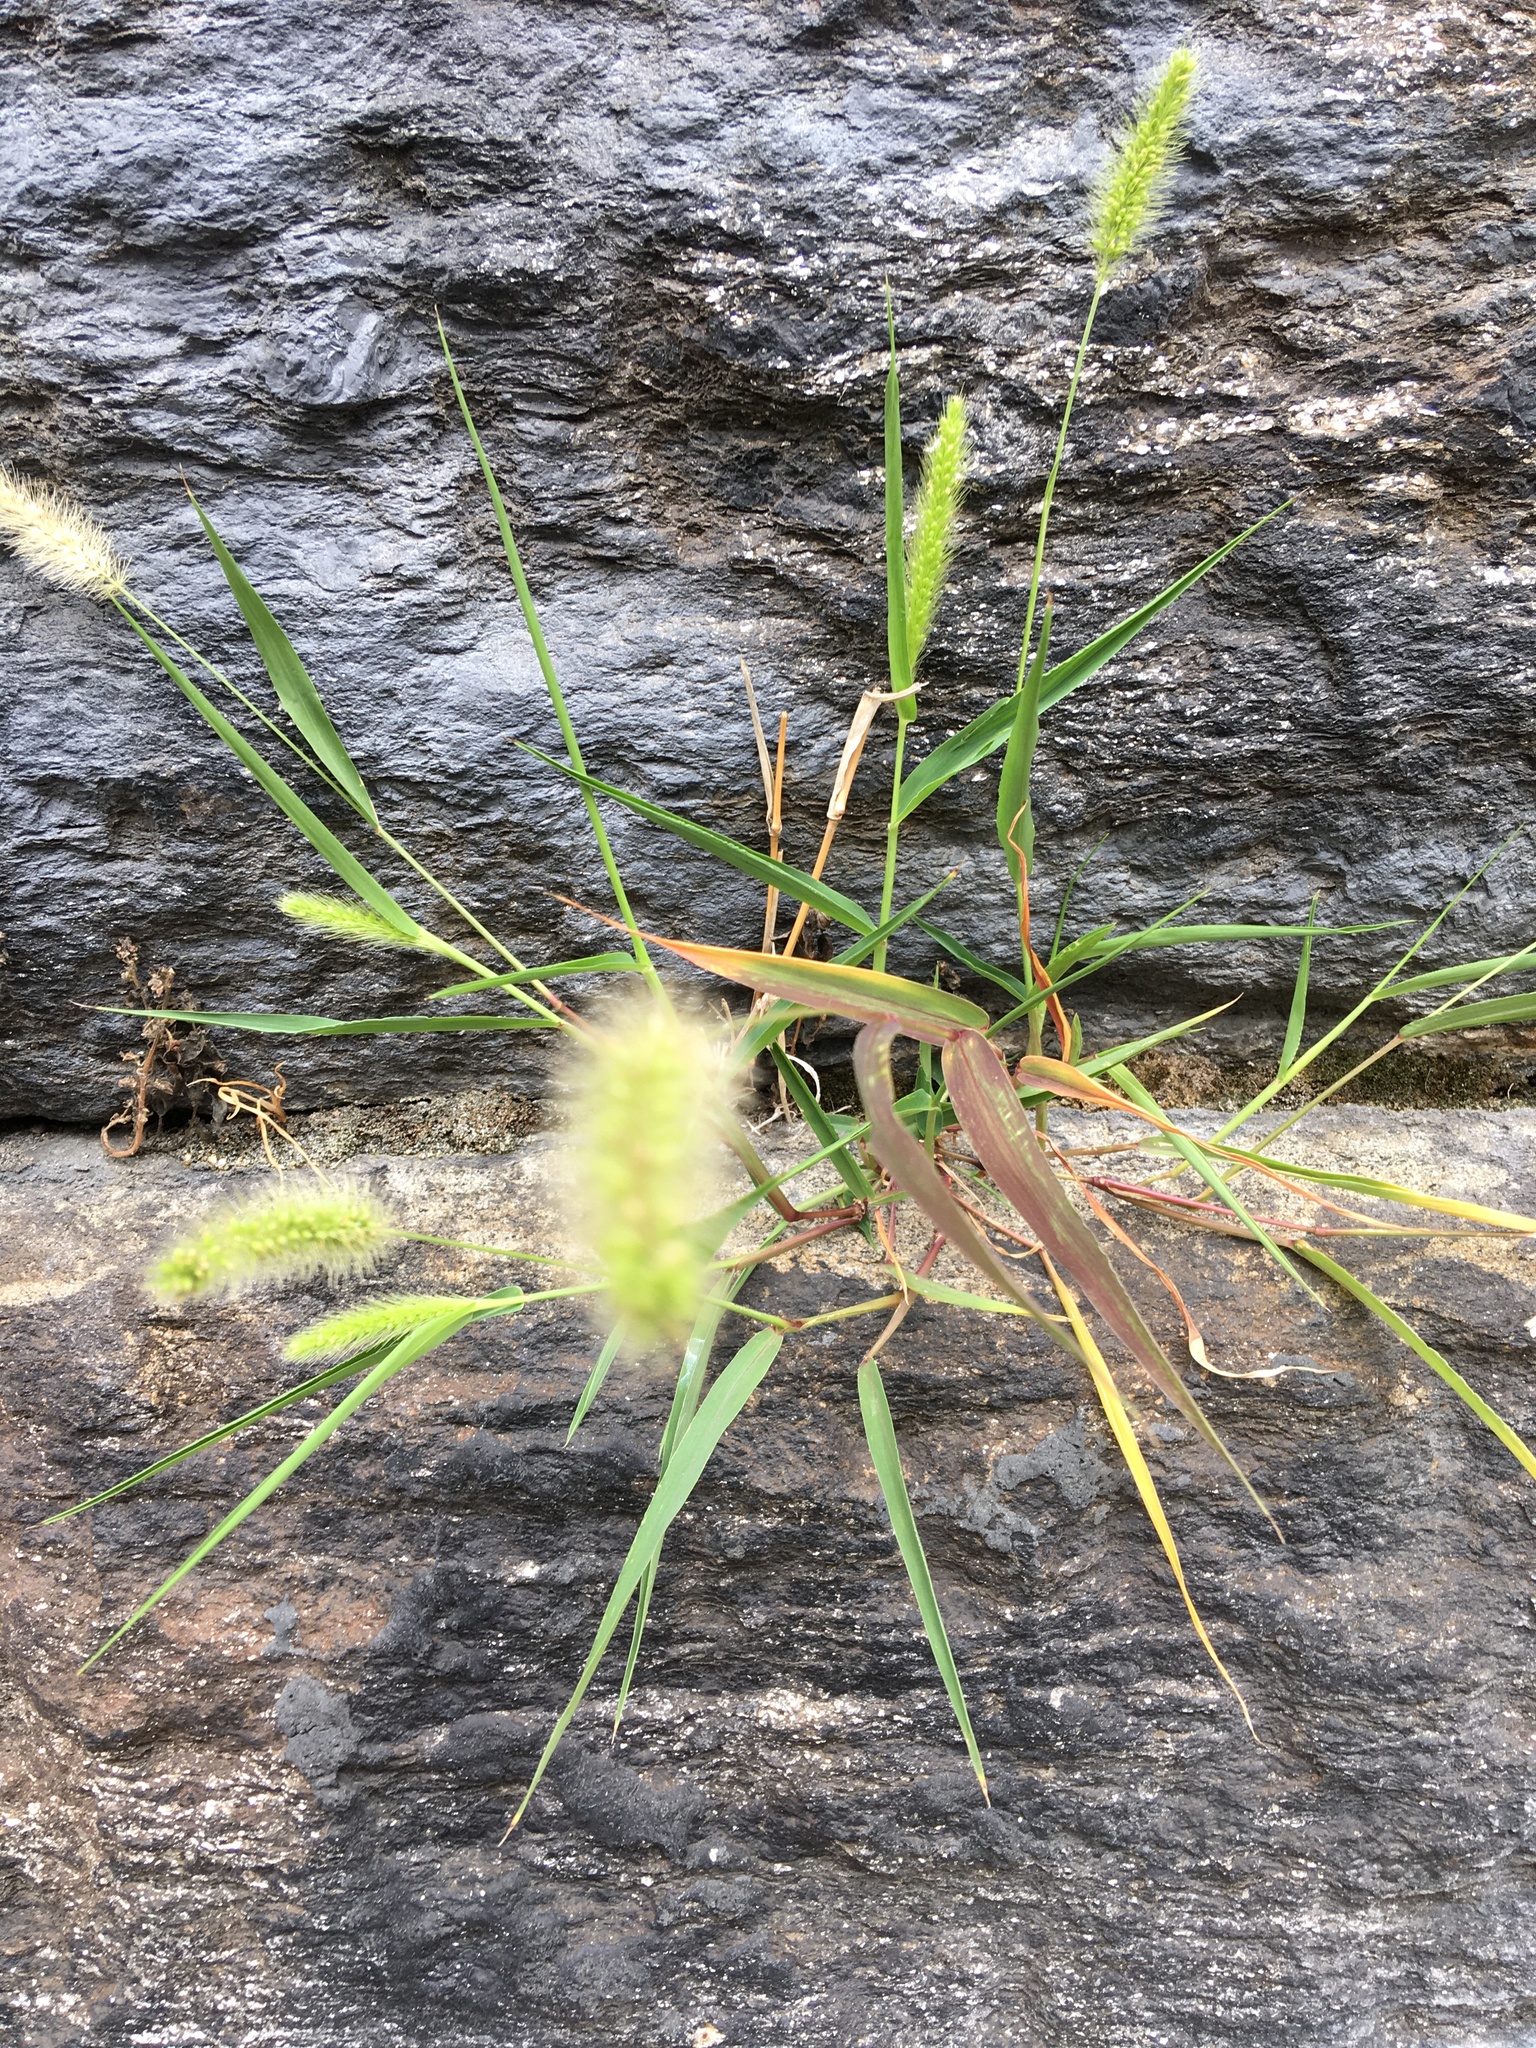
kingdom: Plantae
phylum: Tracheophyta
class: Liliopsida
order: Poales
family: Poaceae
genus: Setaria
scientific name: Setaria viridis
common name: Green bristlegrass
